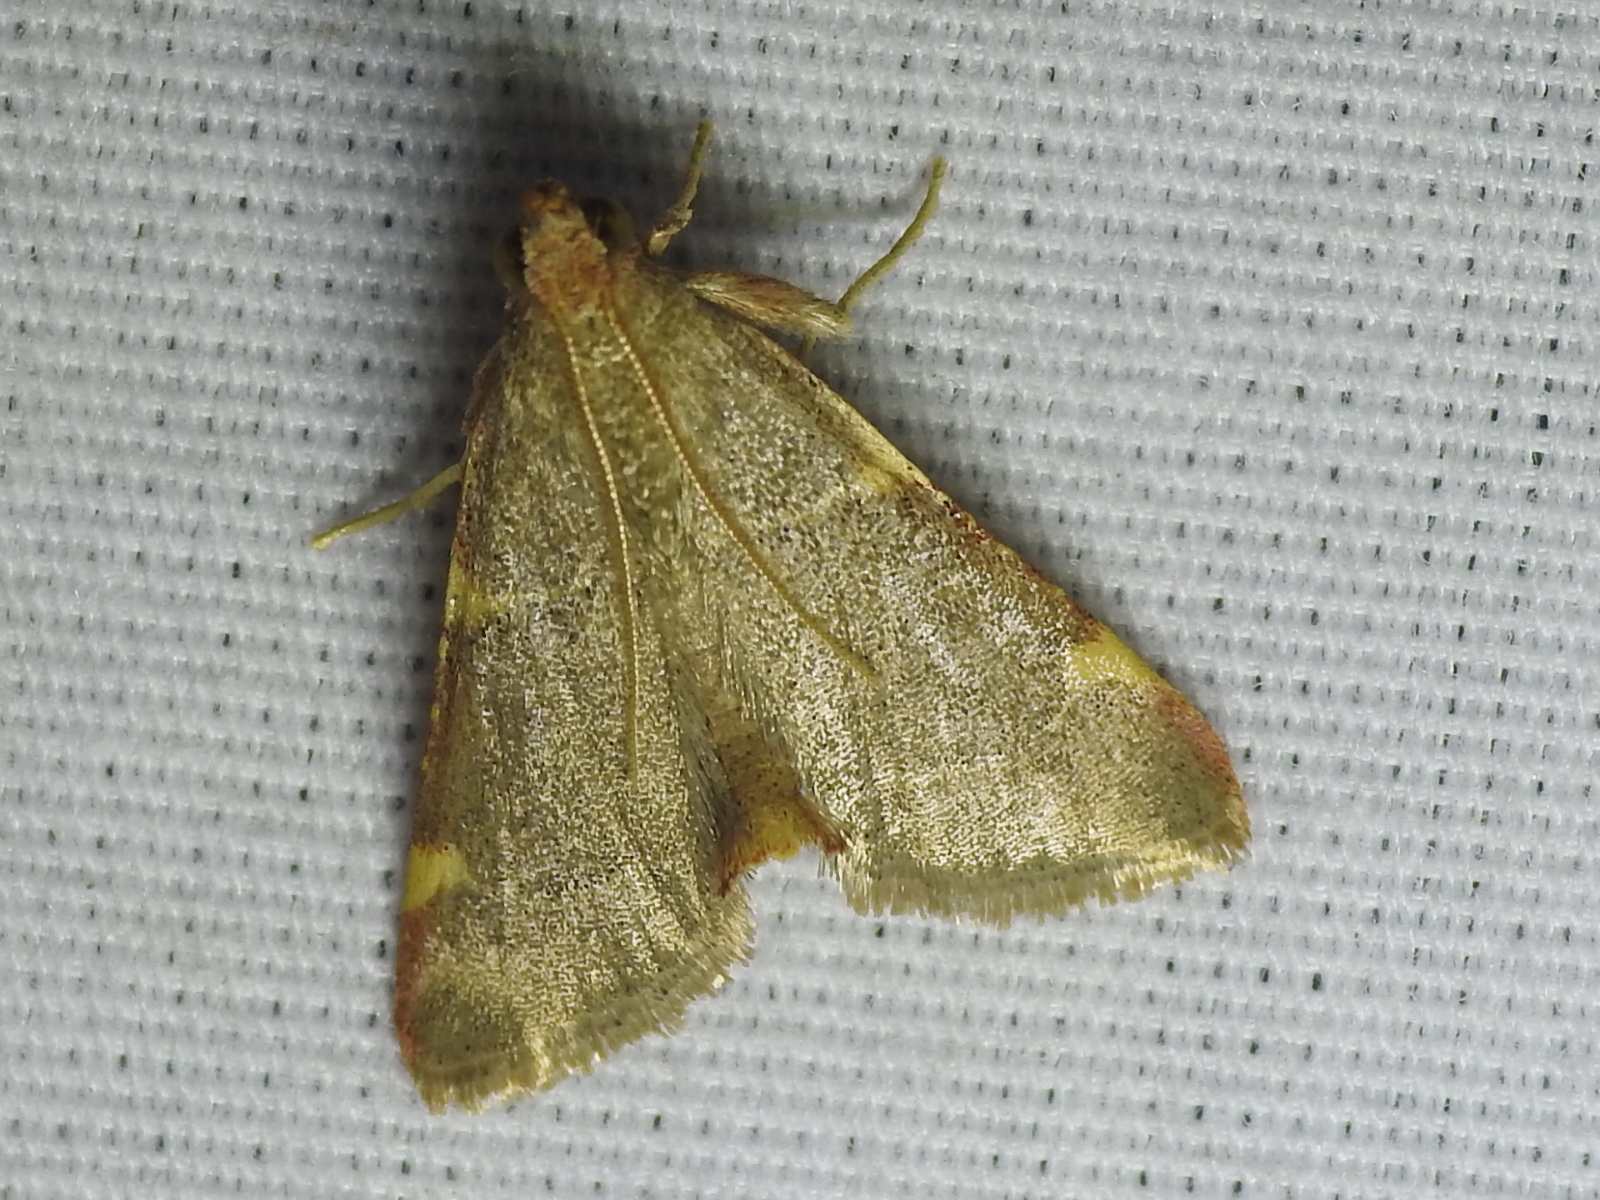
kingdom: Animalia
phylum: Arthropoda
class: Insecta
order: Lepidoptera
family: Pyralidae
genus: Hypsopygia
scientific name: Hypsopygia binodulalis
